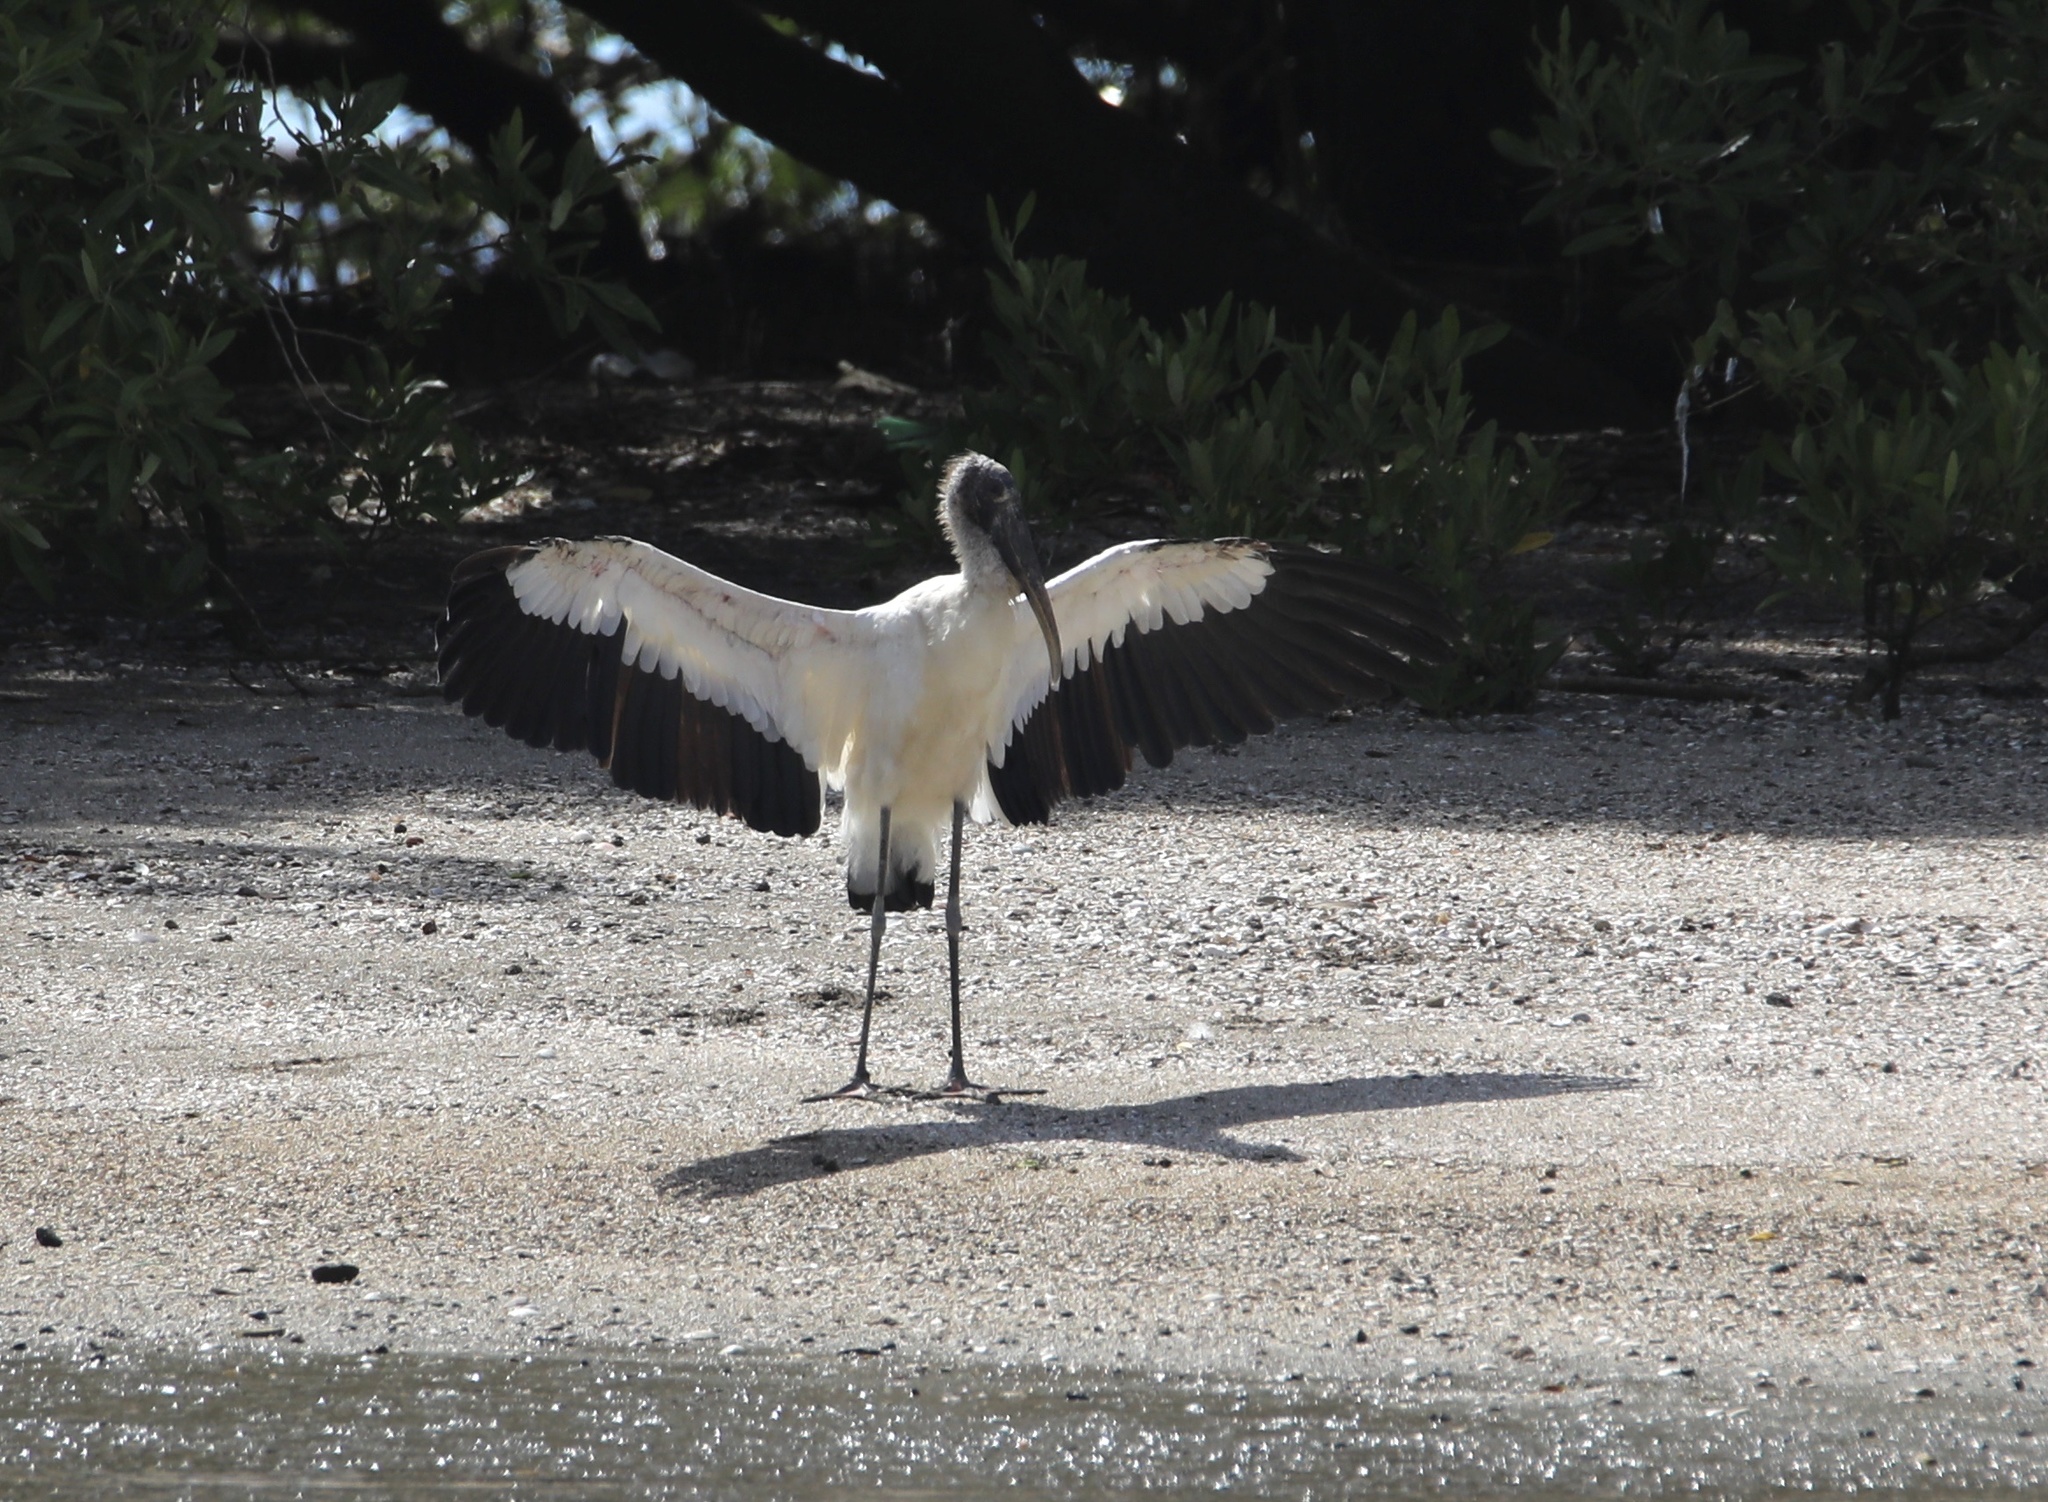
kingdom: Animalia
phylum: Chordata
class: Aves
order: Ciconiiformes
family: Ciconiidae
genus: Mycteria
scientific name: Mycteria americana
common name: Wood stork
